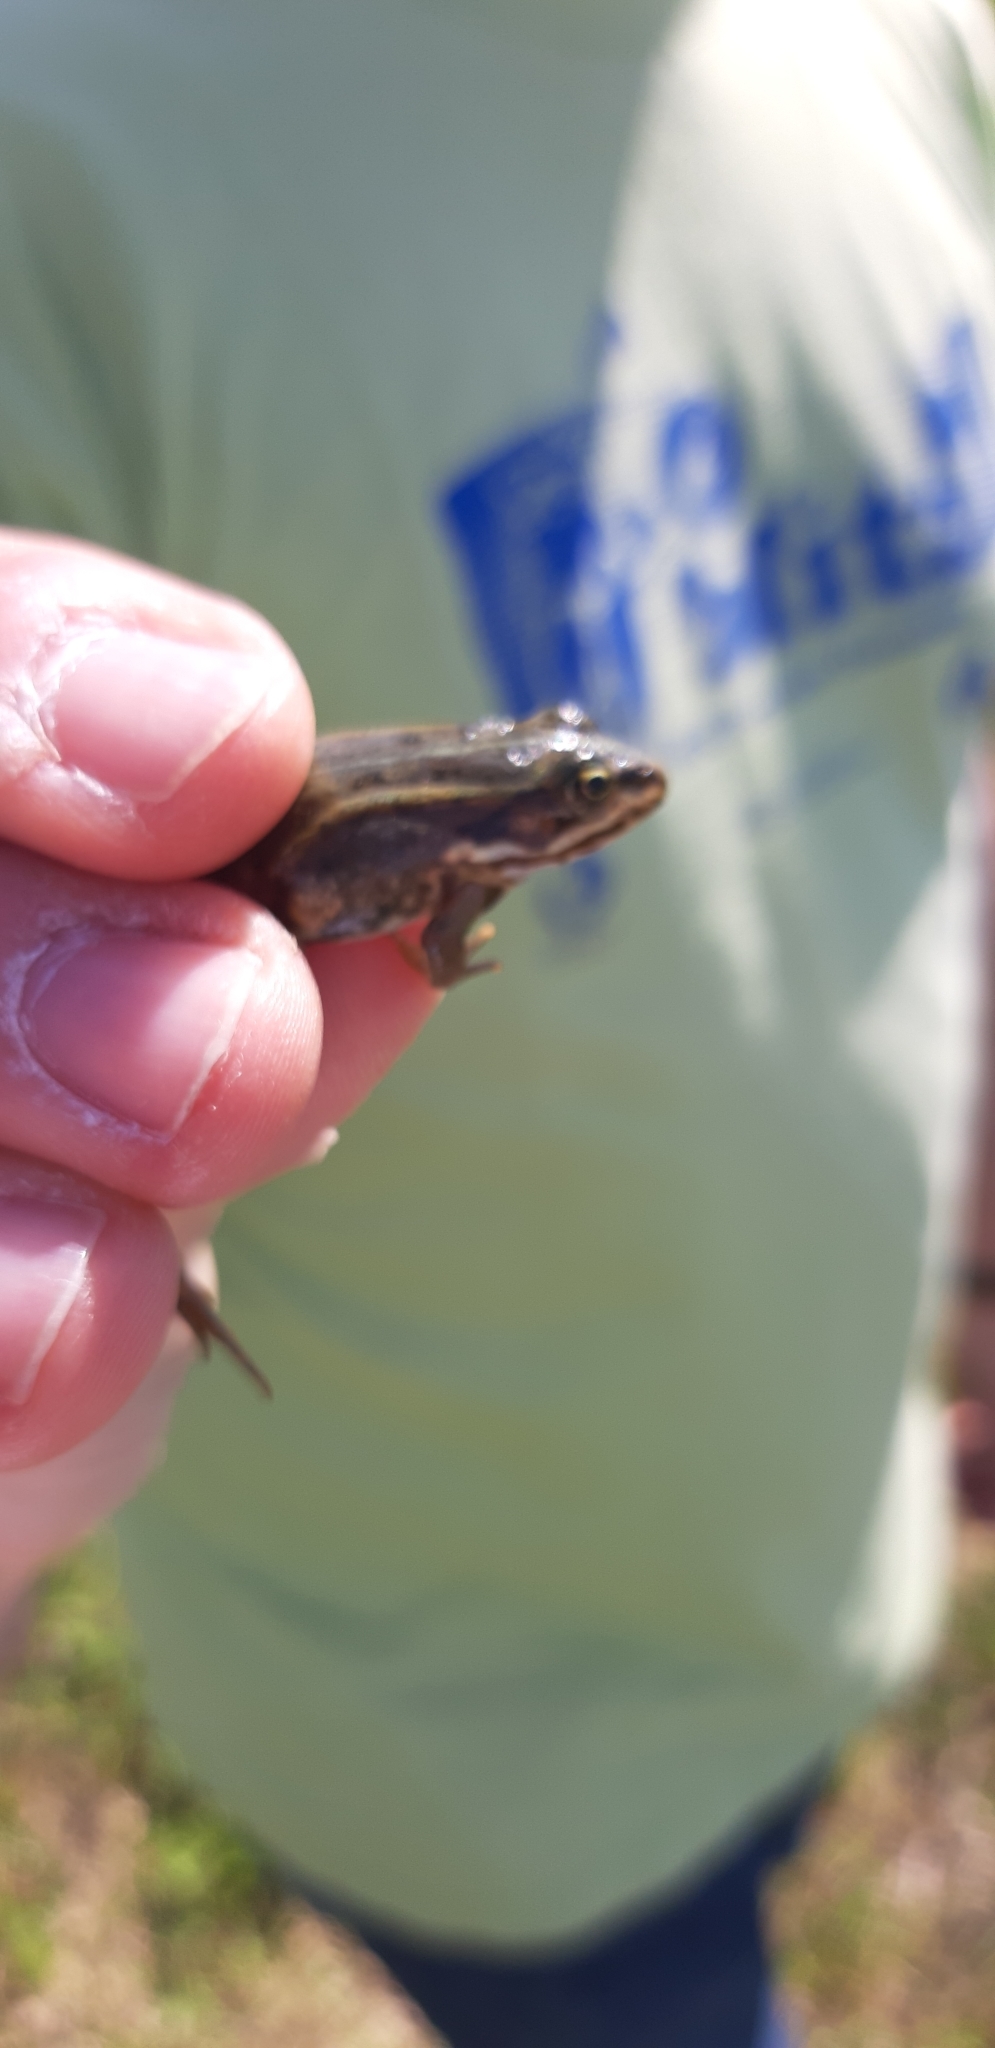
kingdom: Animalia
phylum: Chordata
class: Amphibia
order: Anura
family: Ranidae
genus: Pelophylax
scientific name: Pelophylax
